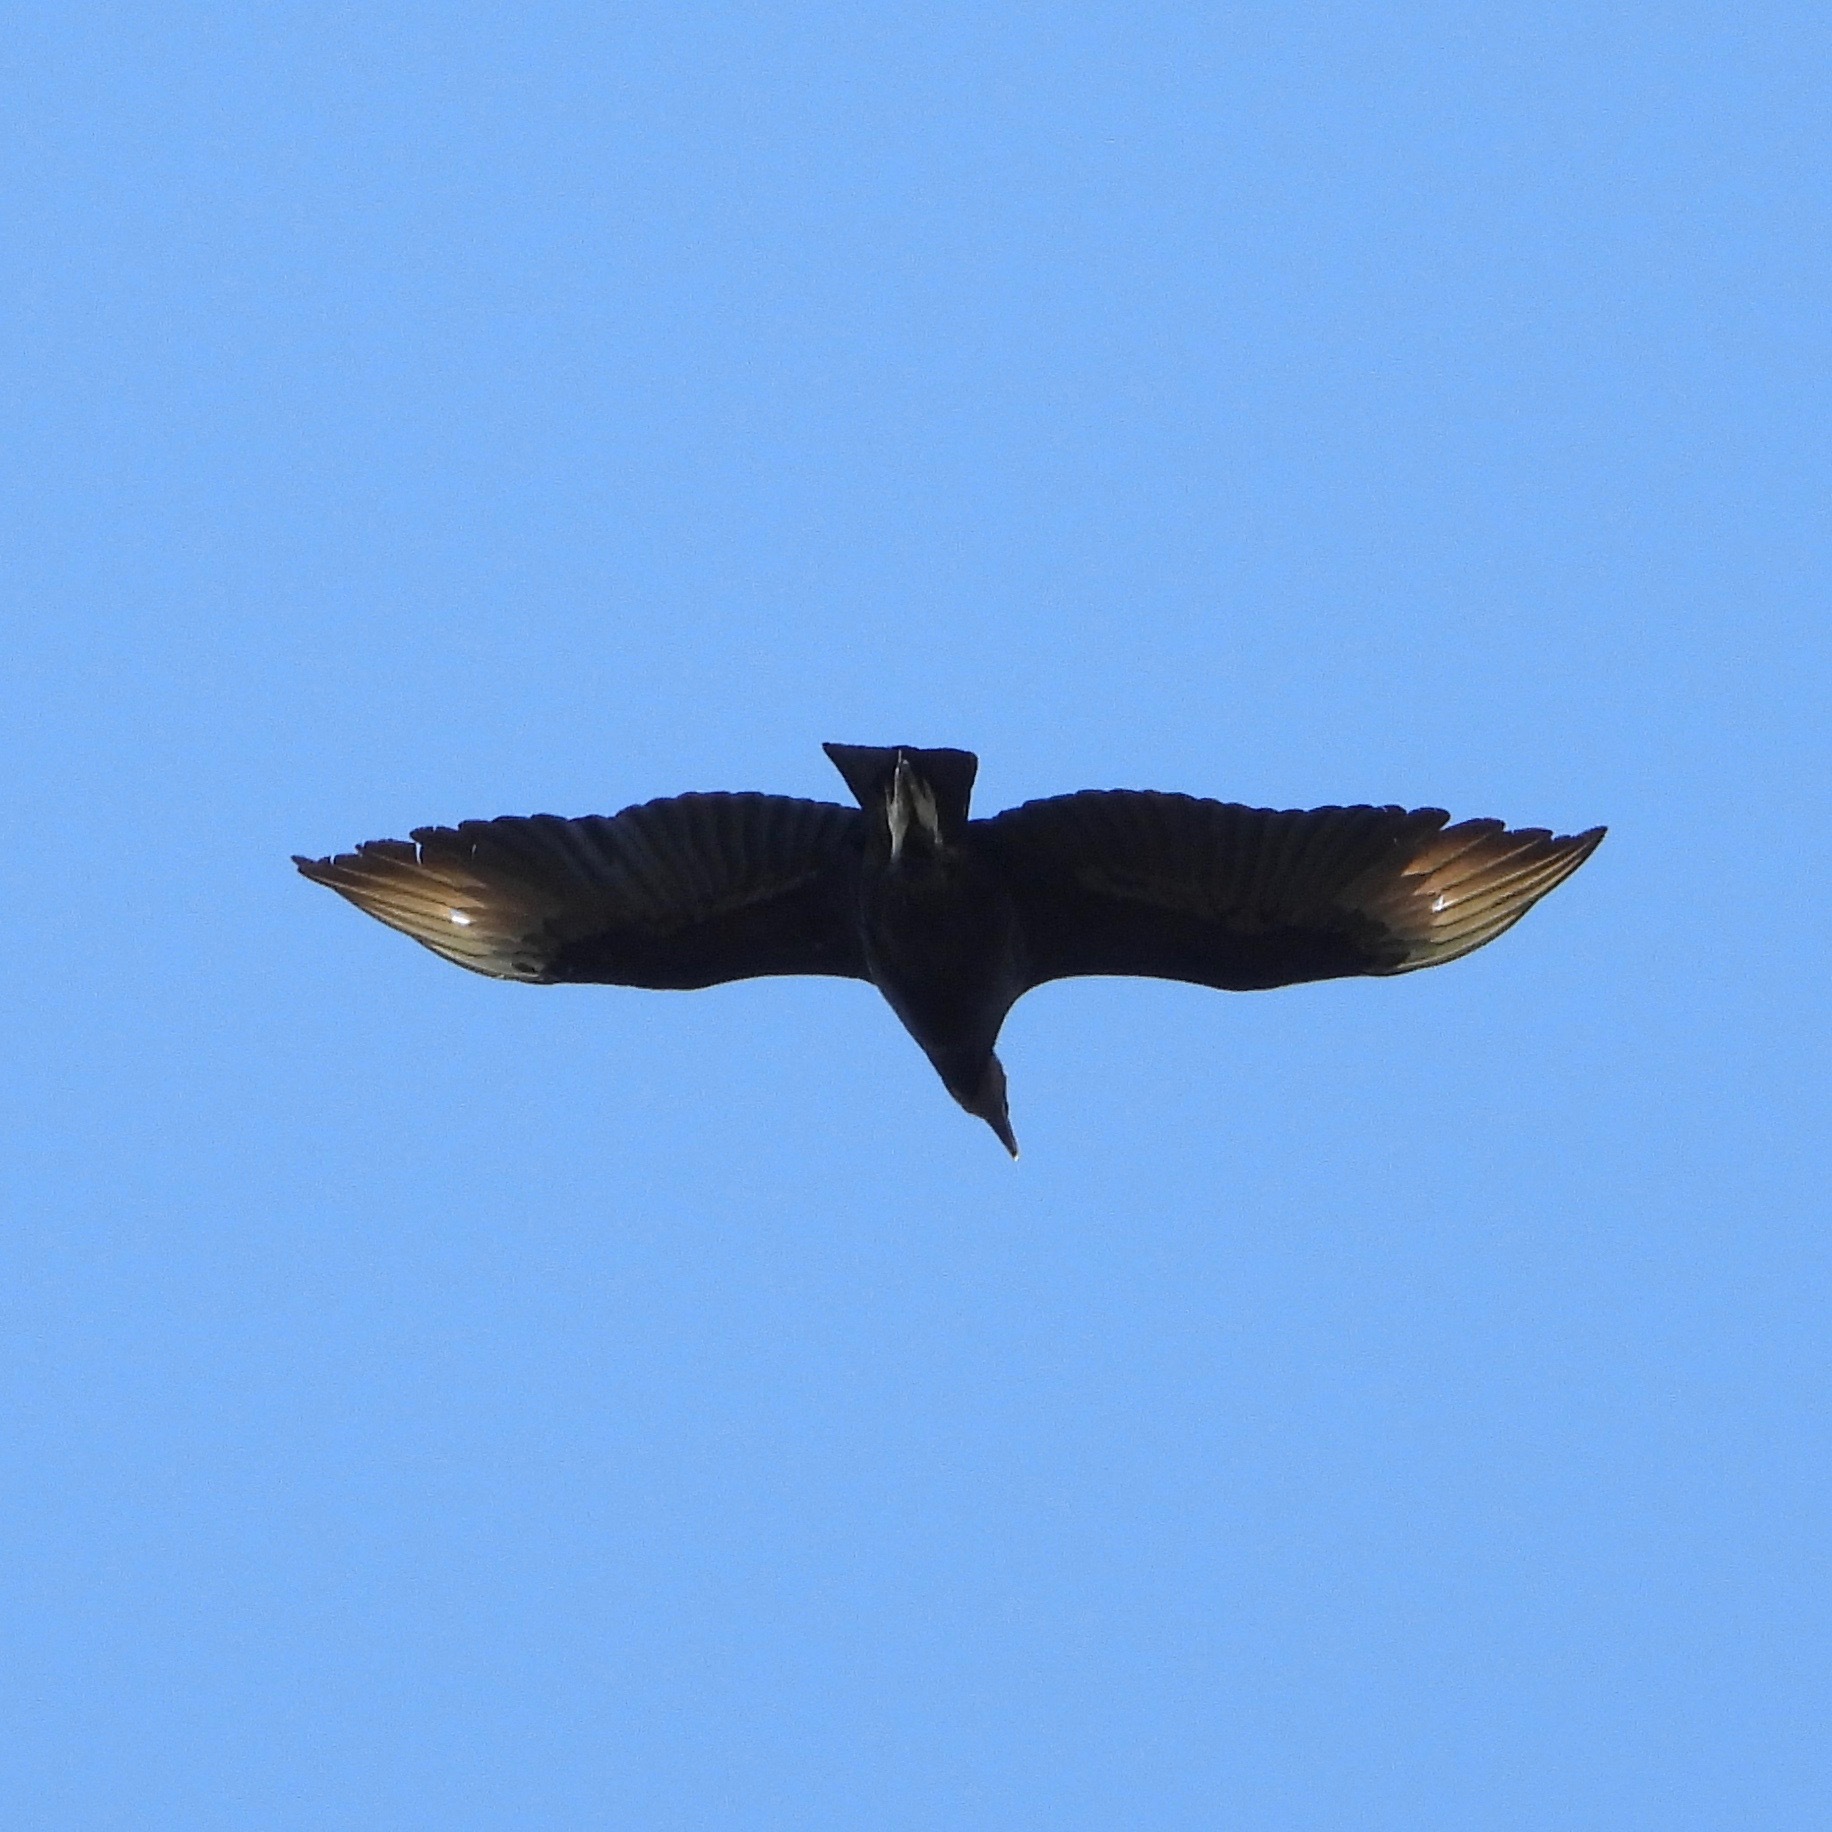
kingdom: Animalia
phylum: Chordata
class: Aves
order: Accipitriformes
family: Cathartidae
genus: Coragyps
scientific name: Coragyps atratus
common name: Black vulture
